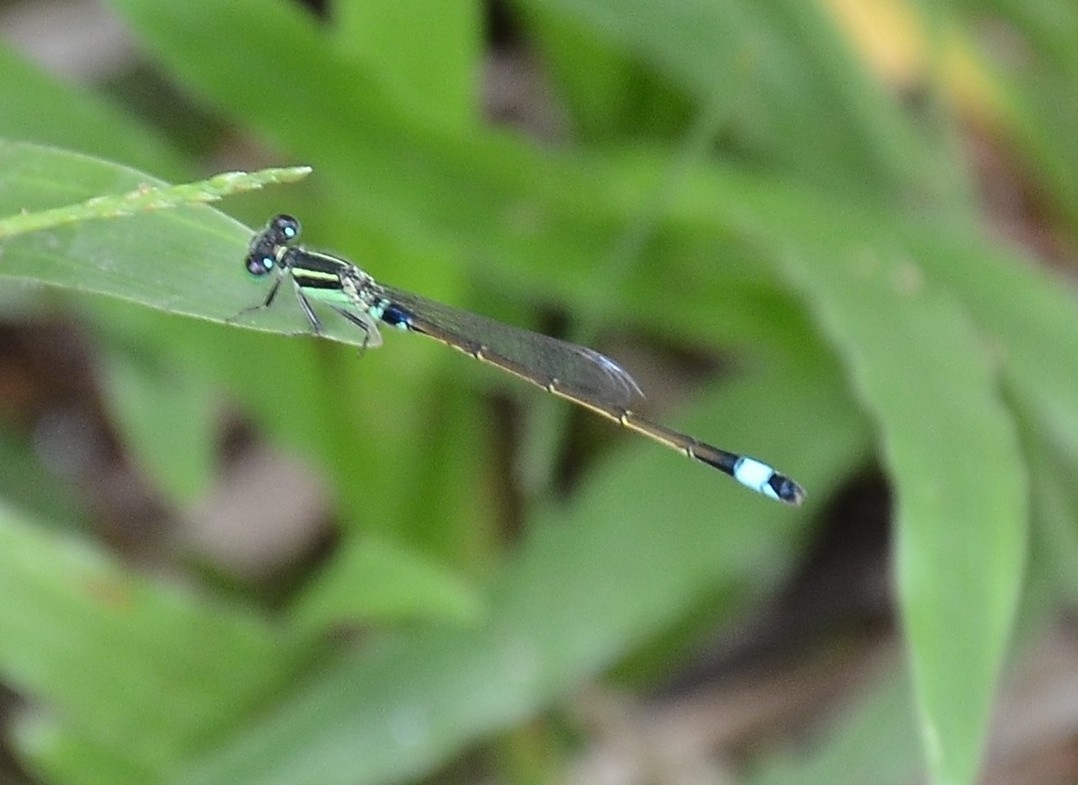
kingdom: Animalia
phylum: Arthropoda
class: Insecta
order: Odonata
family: Coenagrionidae
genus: Ischnura
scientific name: Ischnura senegalensis
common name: Tropical bluetail
